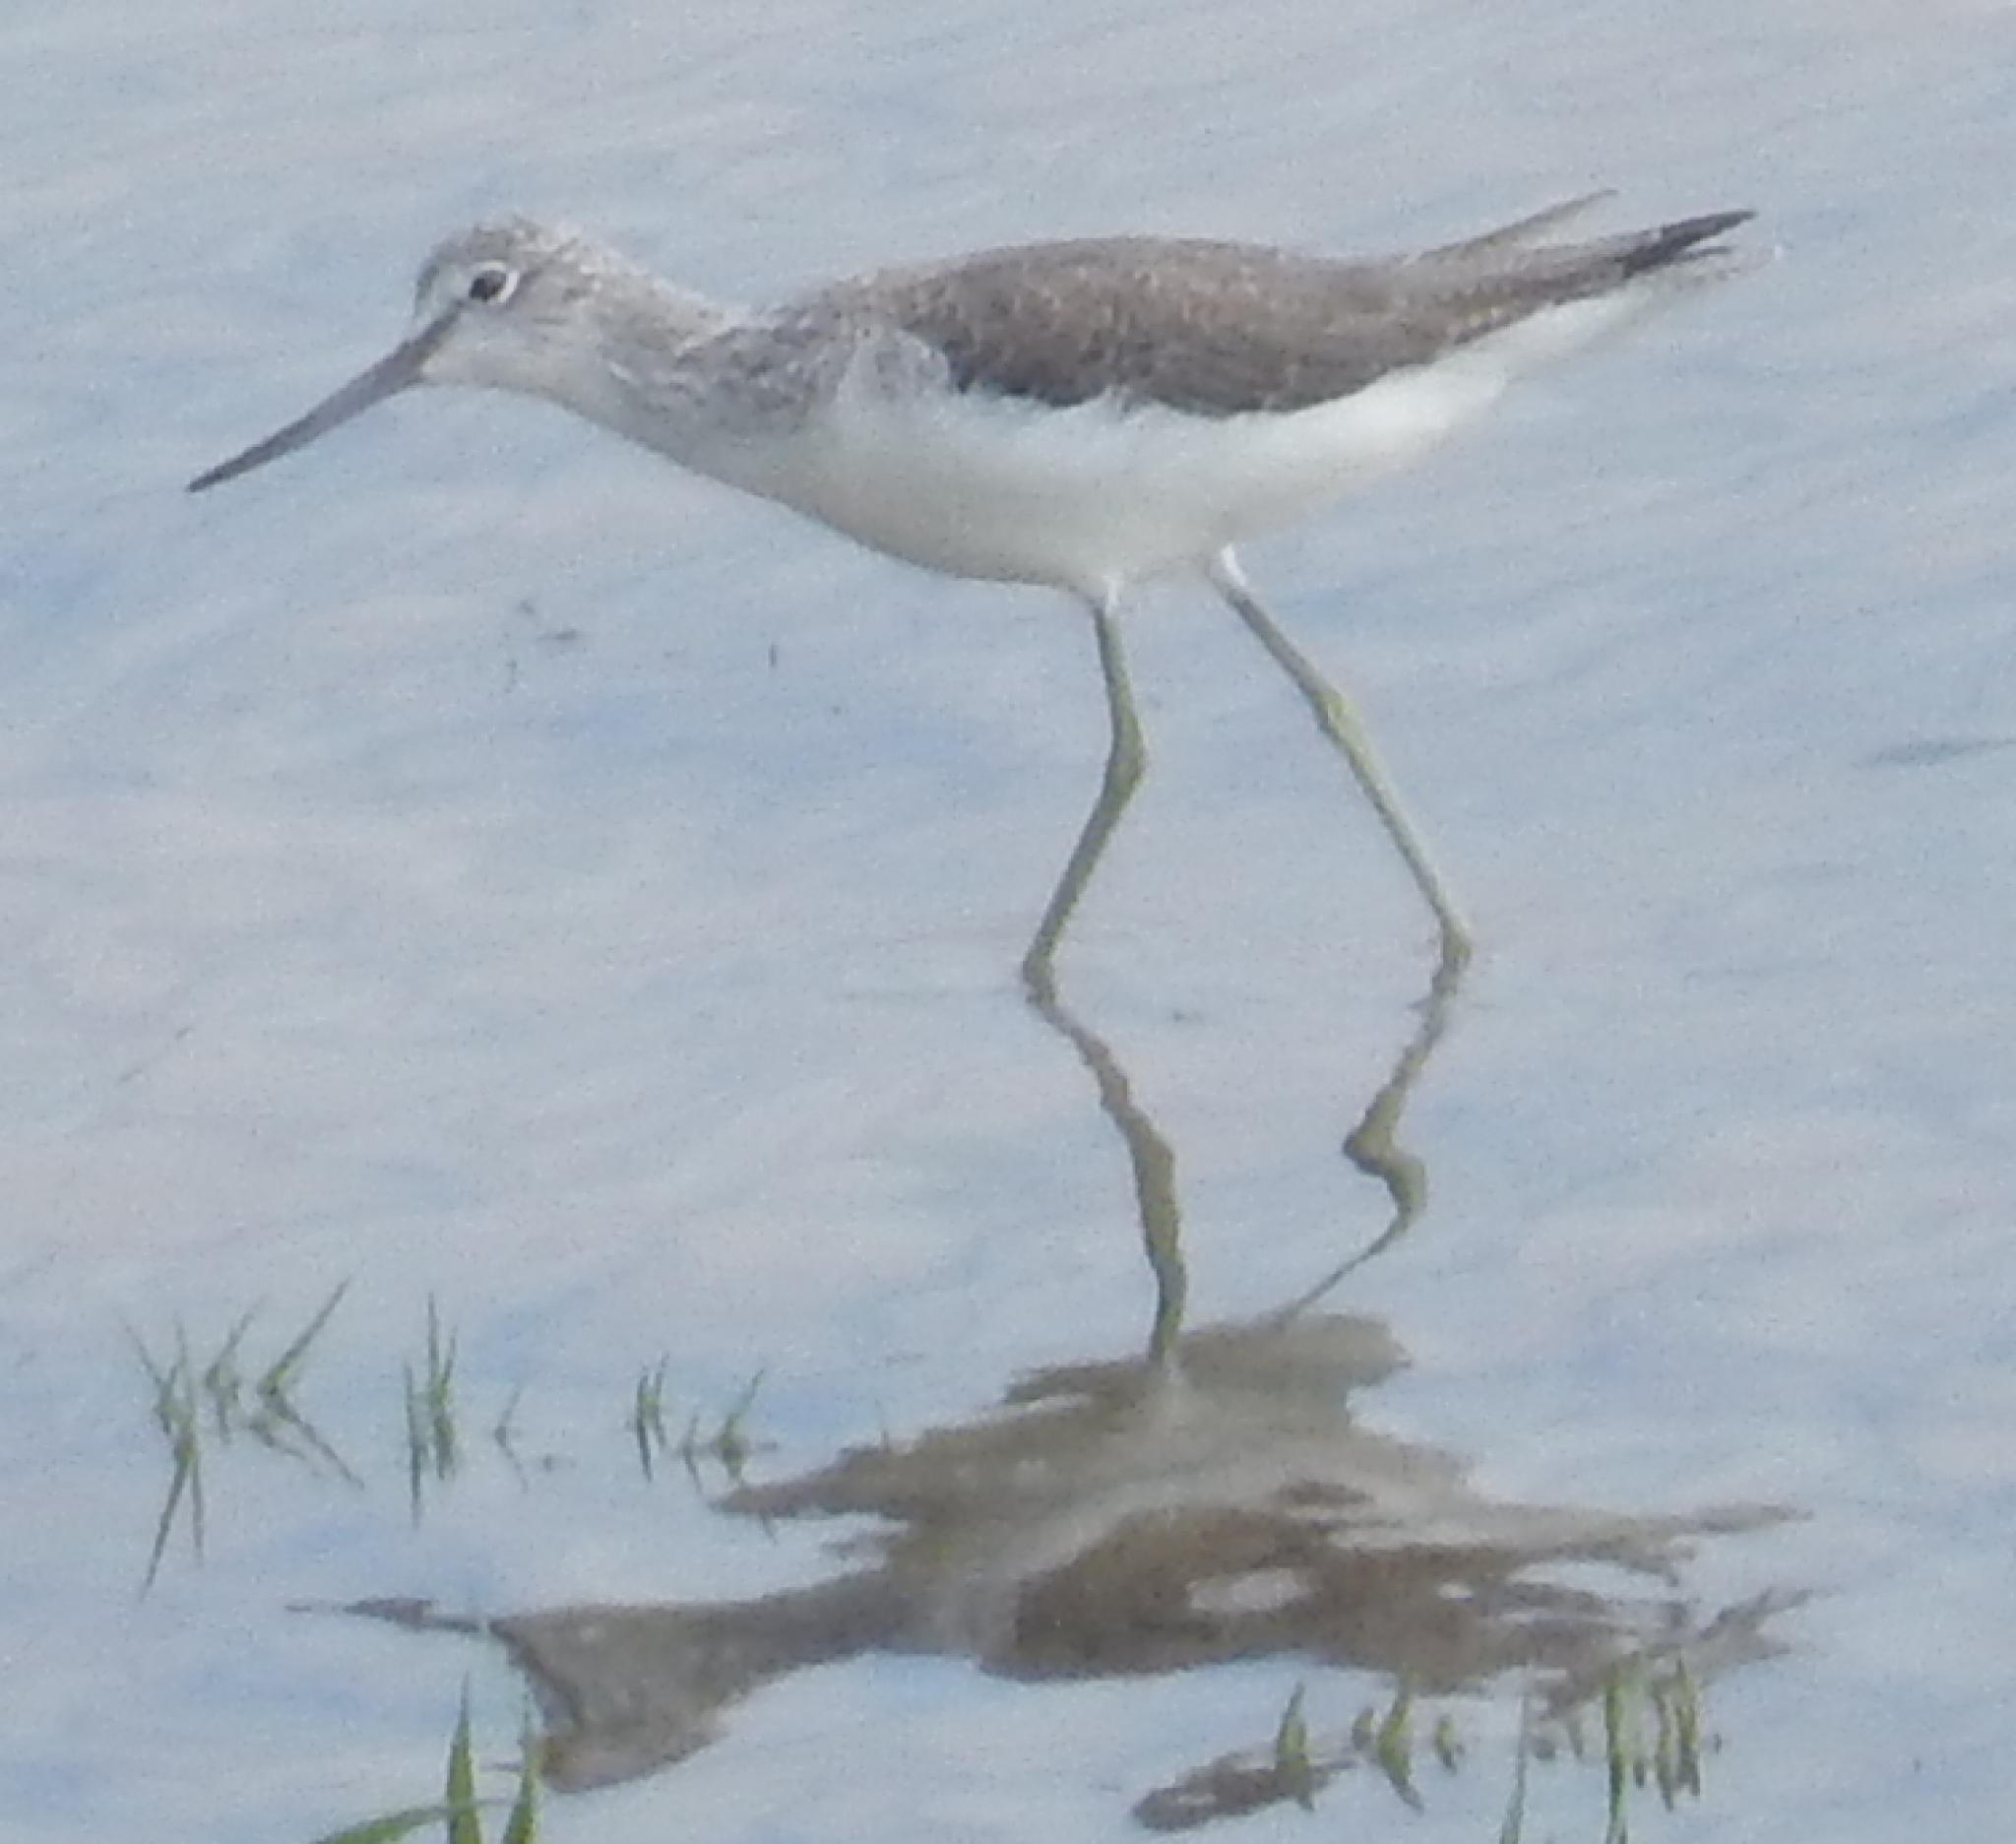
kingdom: Animalia
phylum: Chordata
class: Aves
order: Charadriiformes
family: Scolopacidae
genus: Tringa
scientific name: Tringa nebularia
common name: Common greenshank
